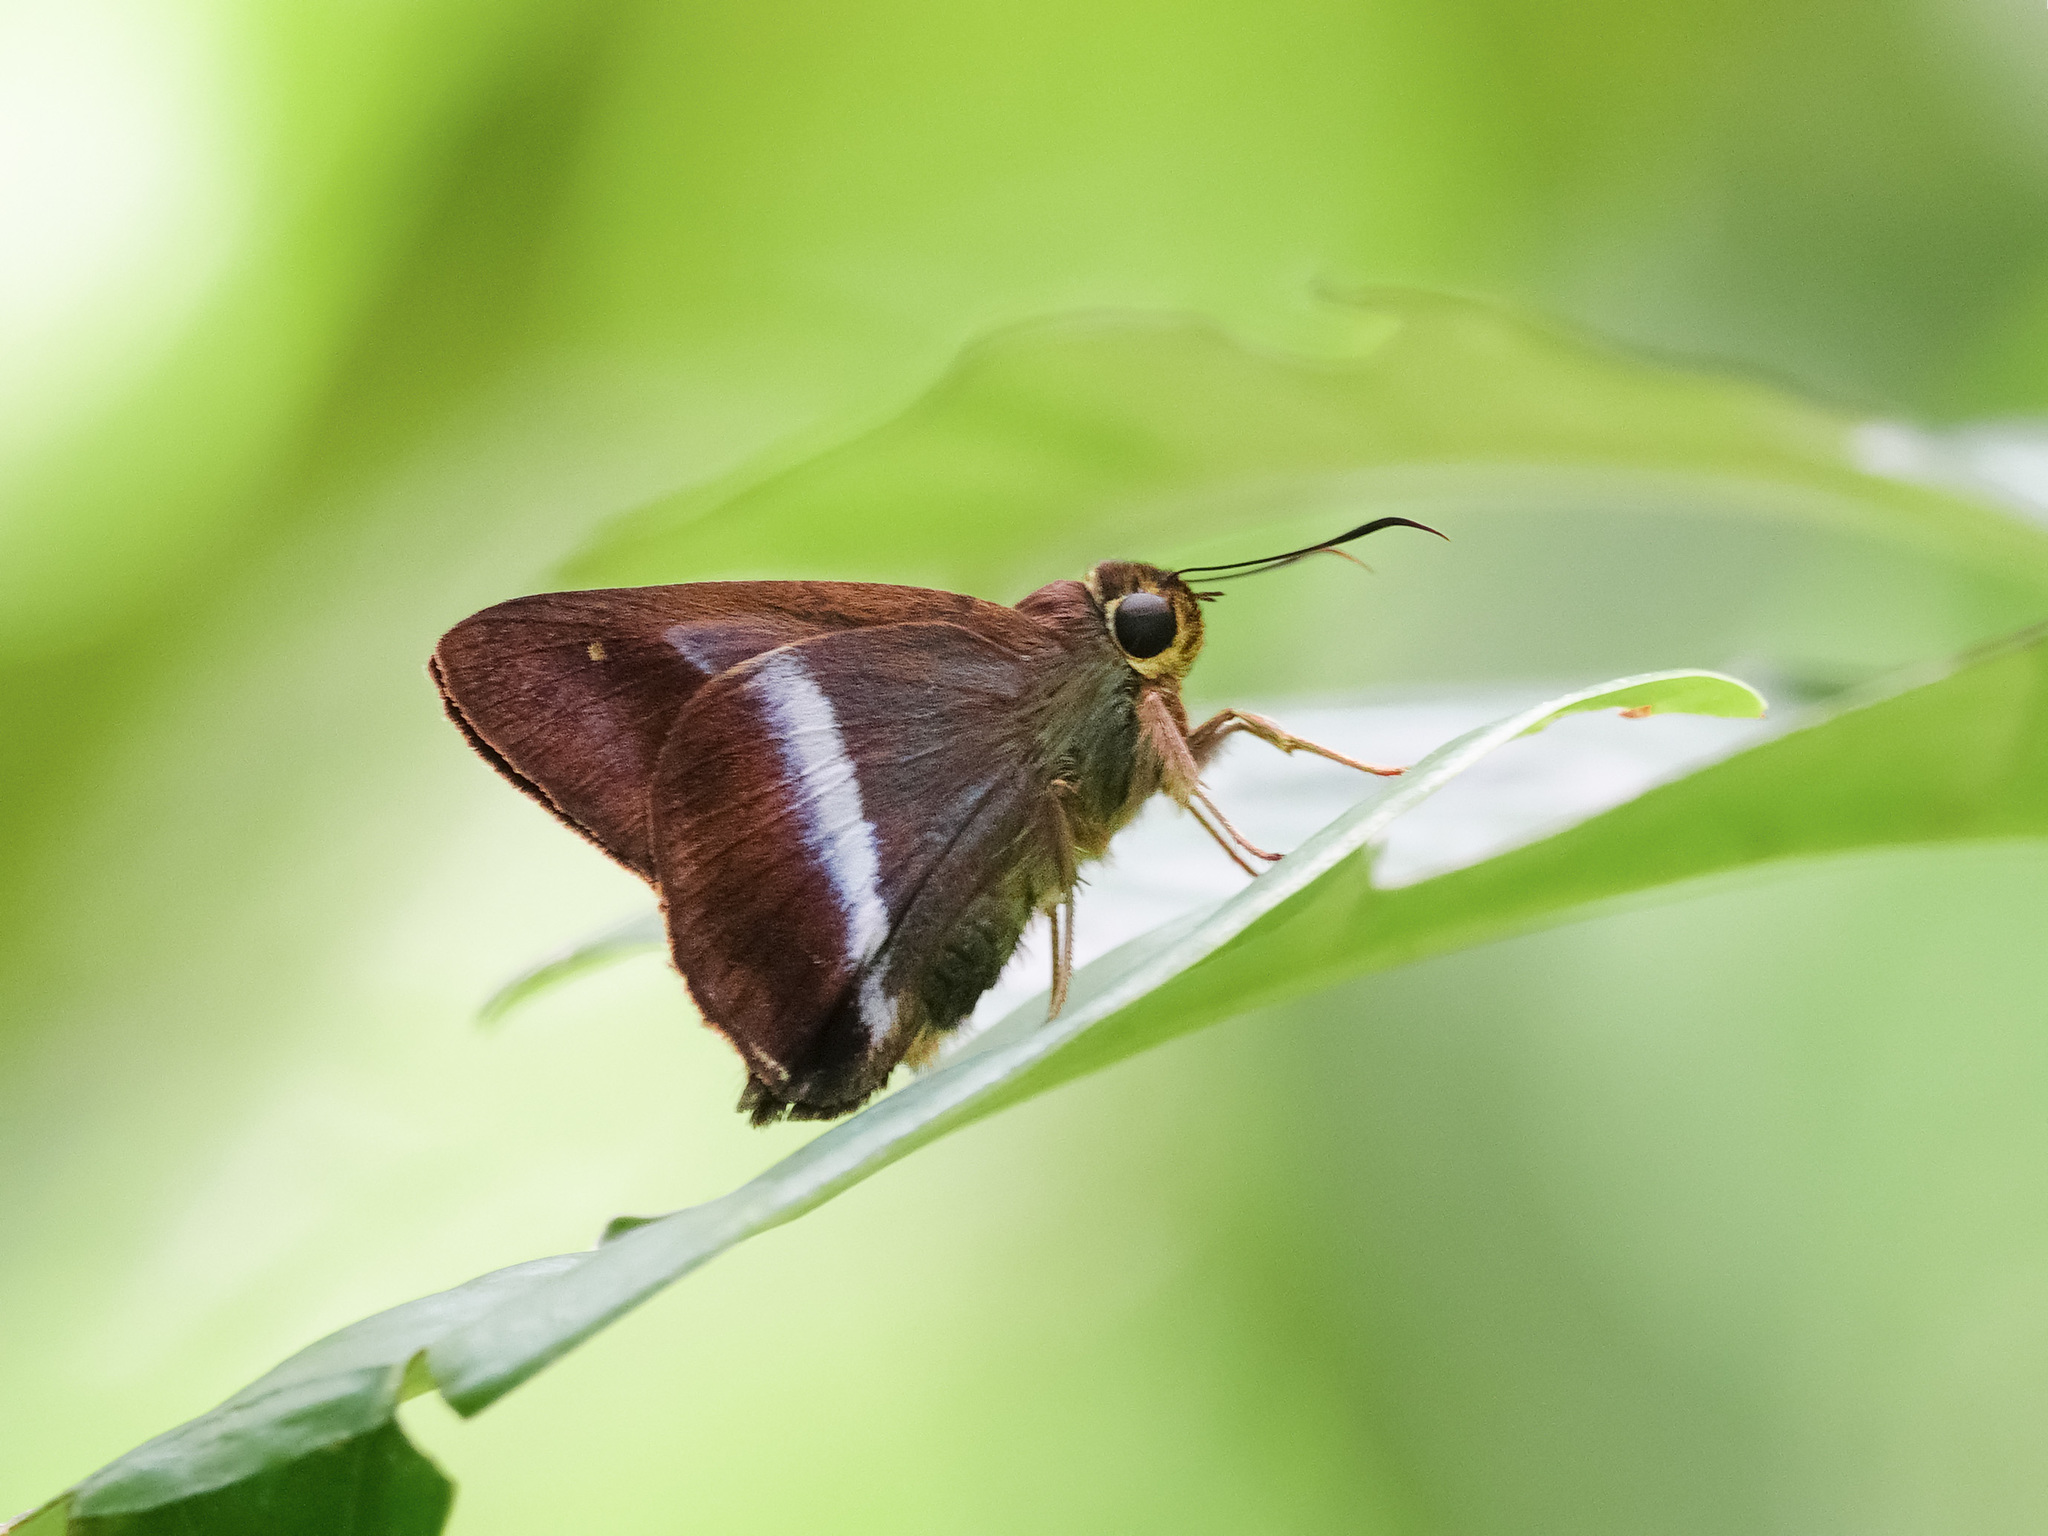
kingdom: Animalia
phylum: Arthropoda
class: Insecta
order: Lepidoptera
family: Hesperiidae
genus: Hasora
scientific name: Hasora vitta
